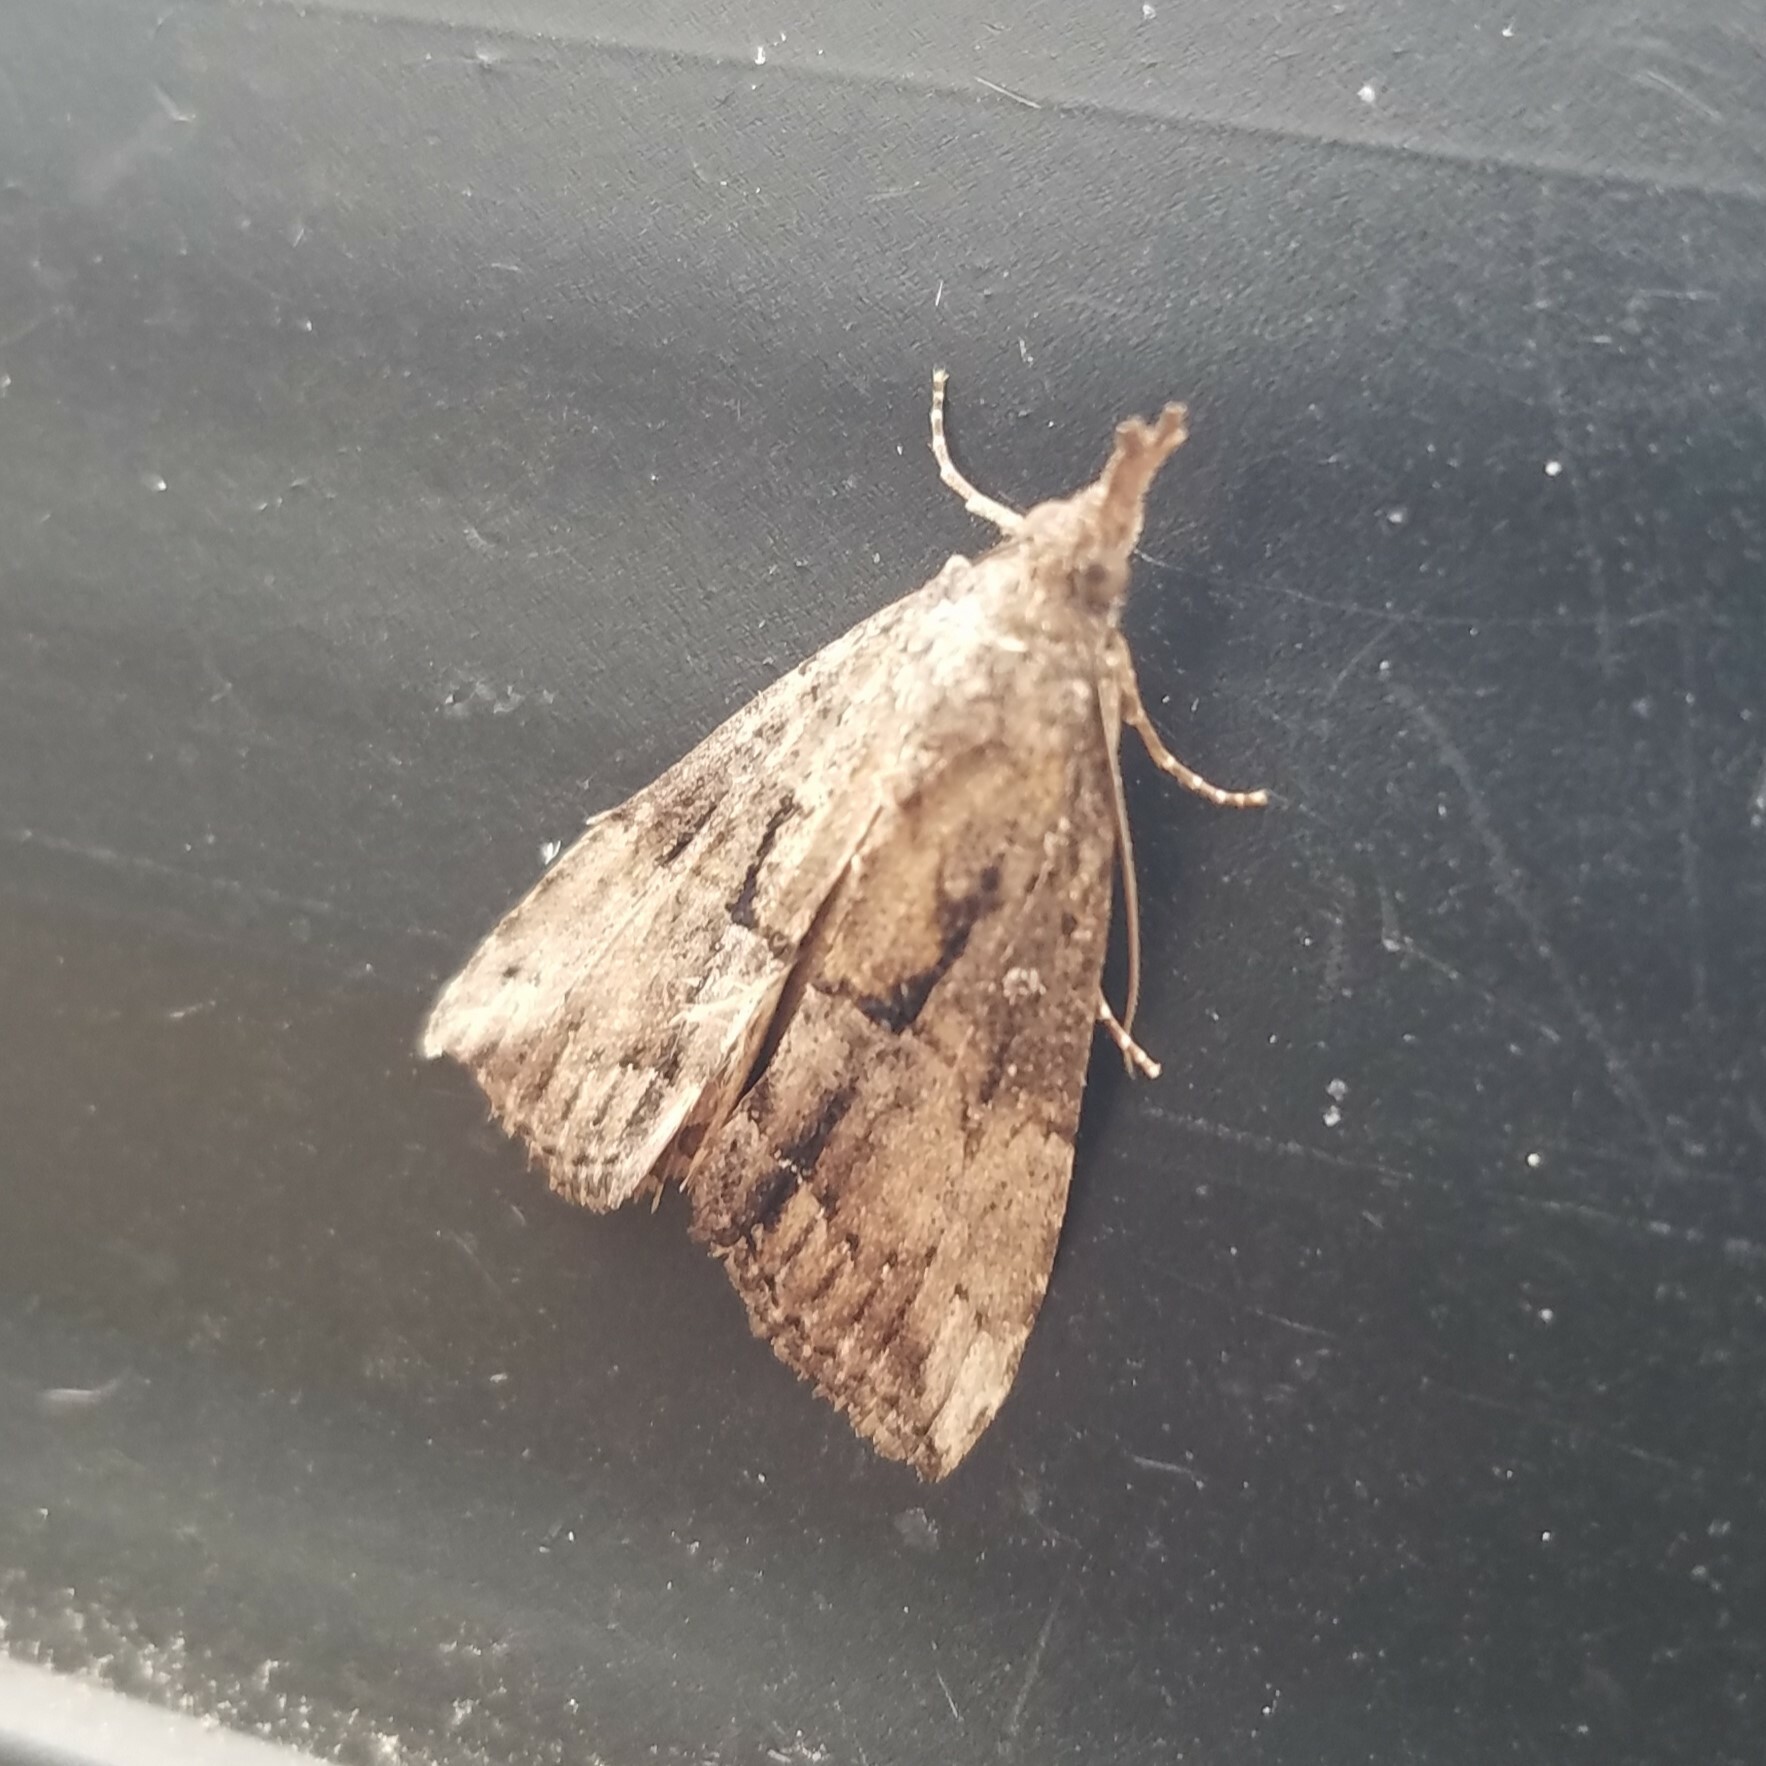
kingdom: Animalia
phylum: Arthropoda
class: Insecta
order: Lepidoptera
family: Erebidae
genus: Hypena
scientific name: Hypena scabra
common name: Green cloverworm
